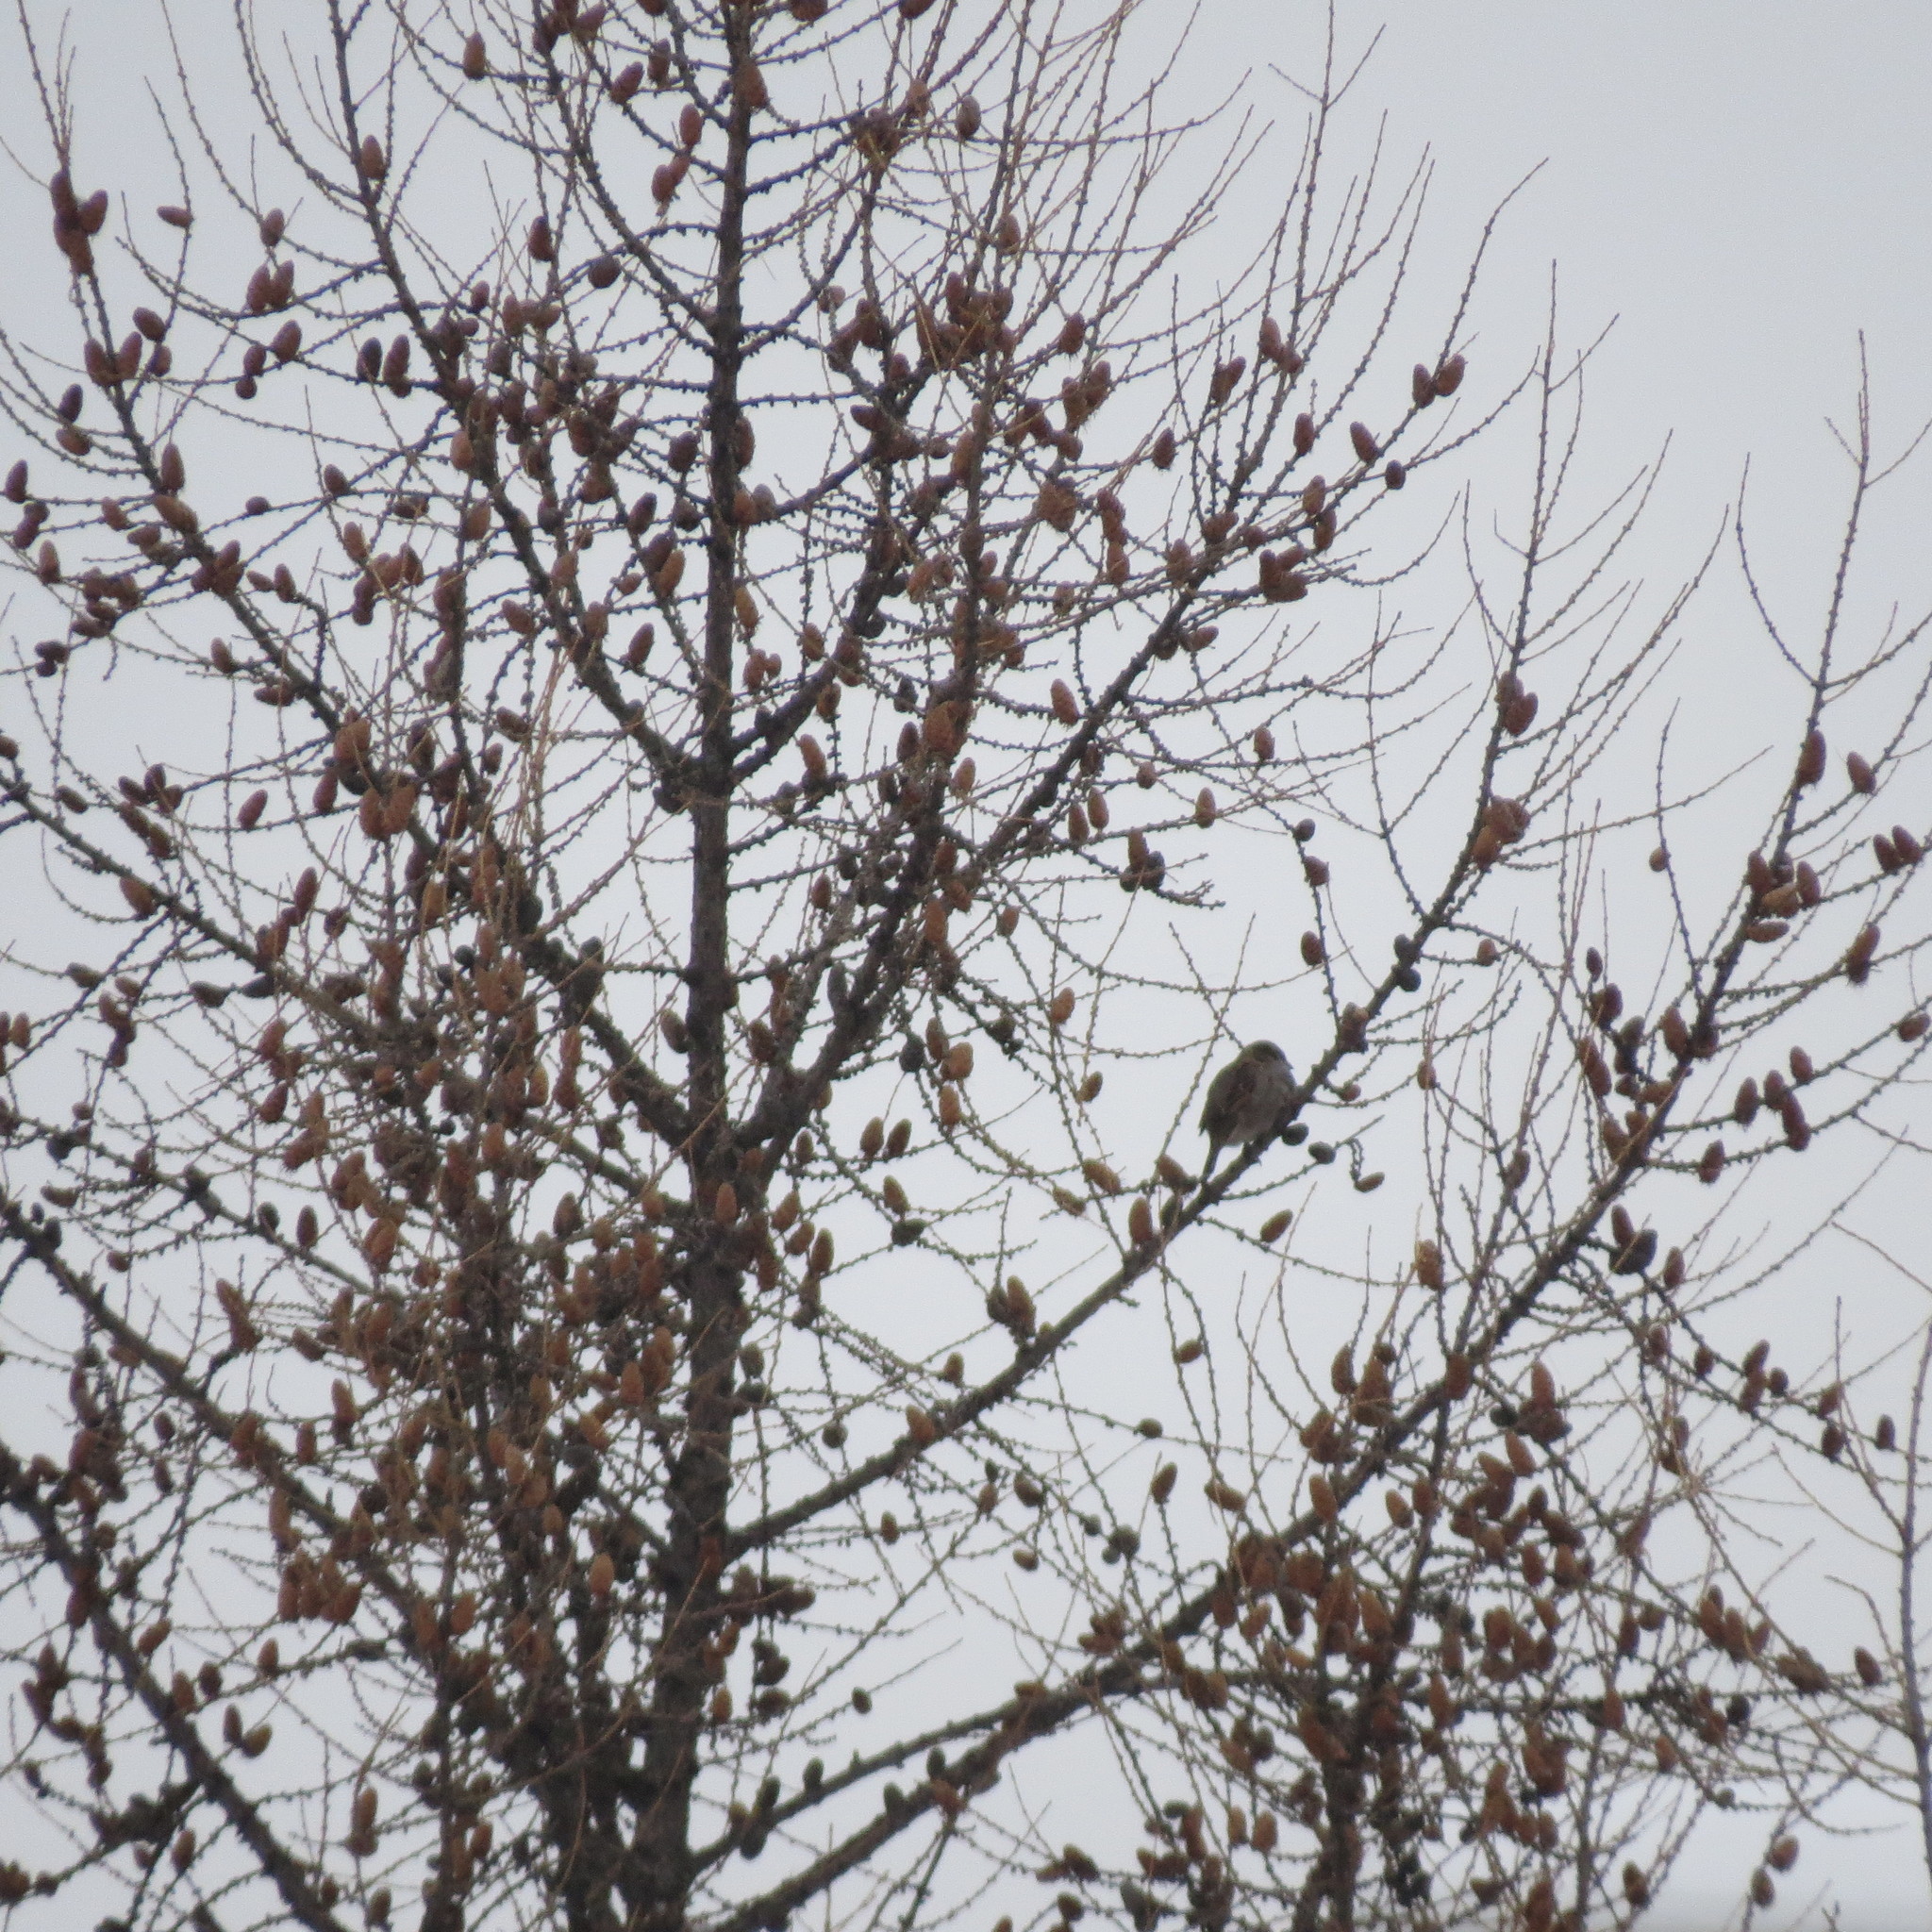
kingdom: Animalia
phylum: Chordata
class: Aves
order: Passeriformes
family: Passeridae
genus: Passer
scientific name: Passer domesticus
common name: House sparrow
